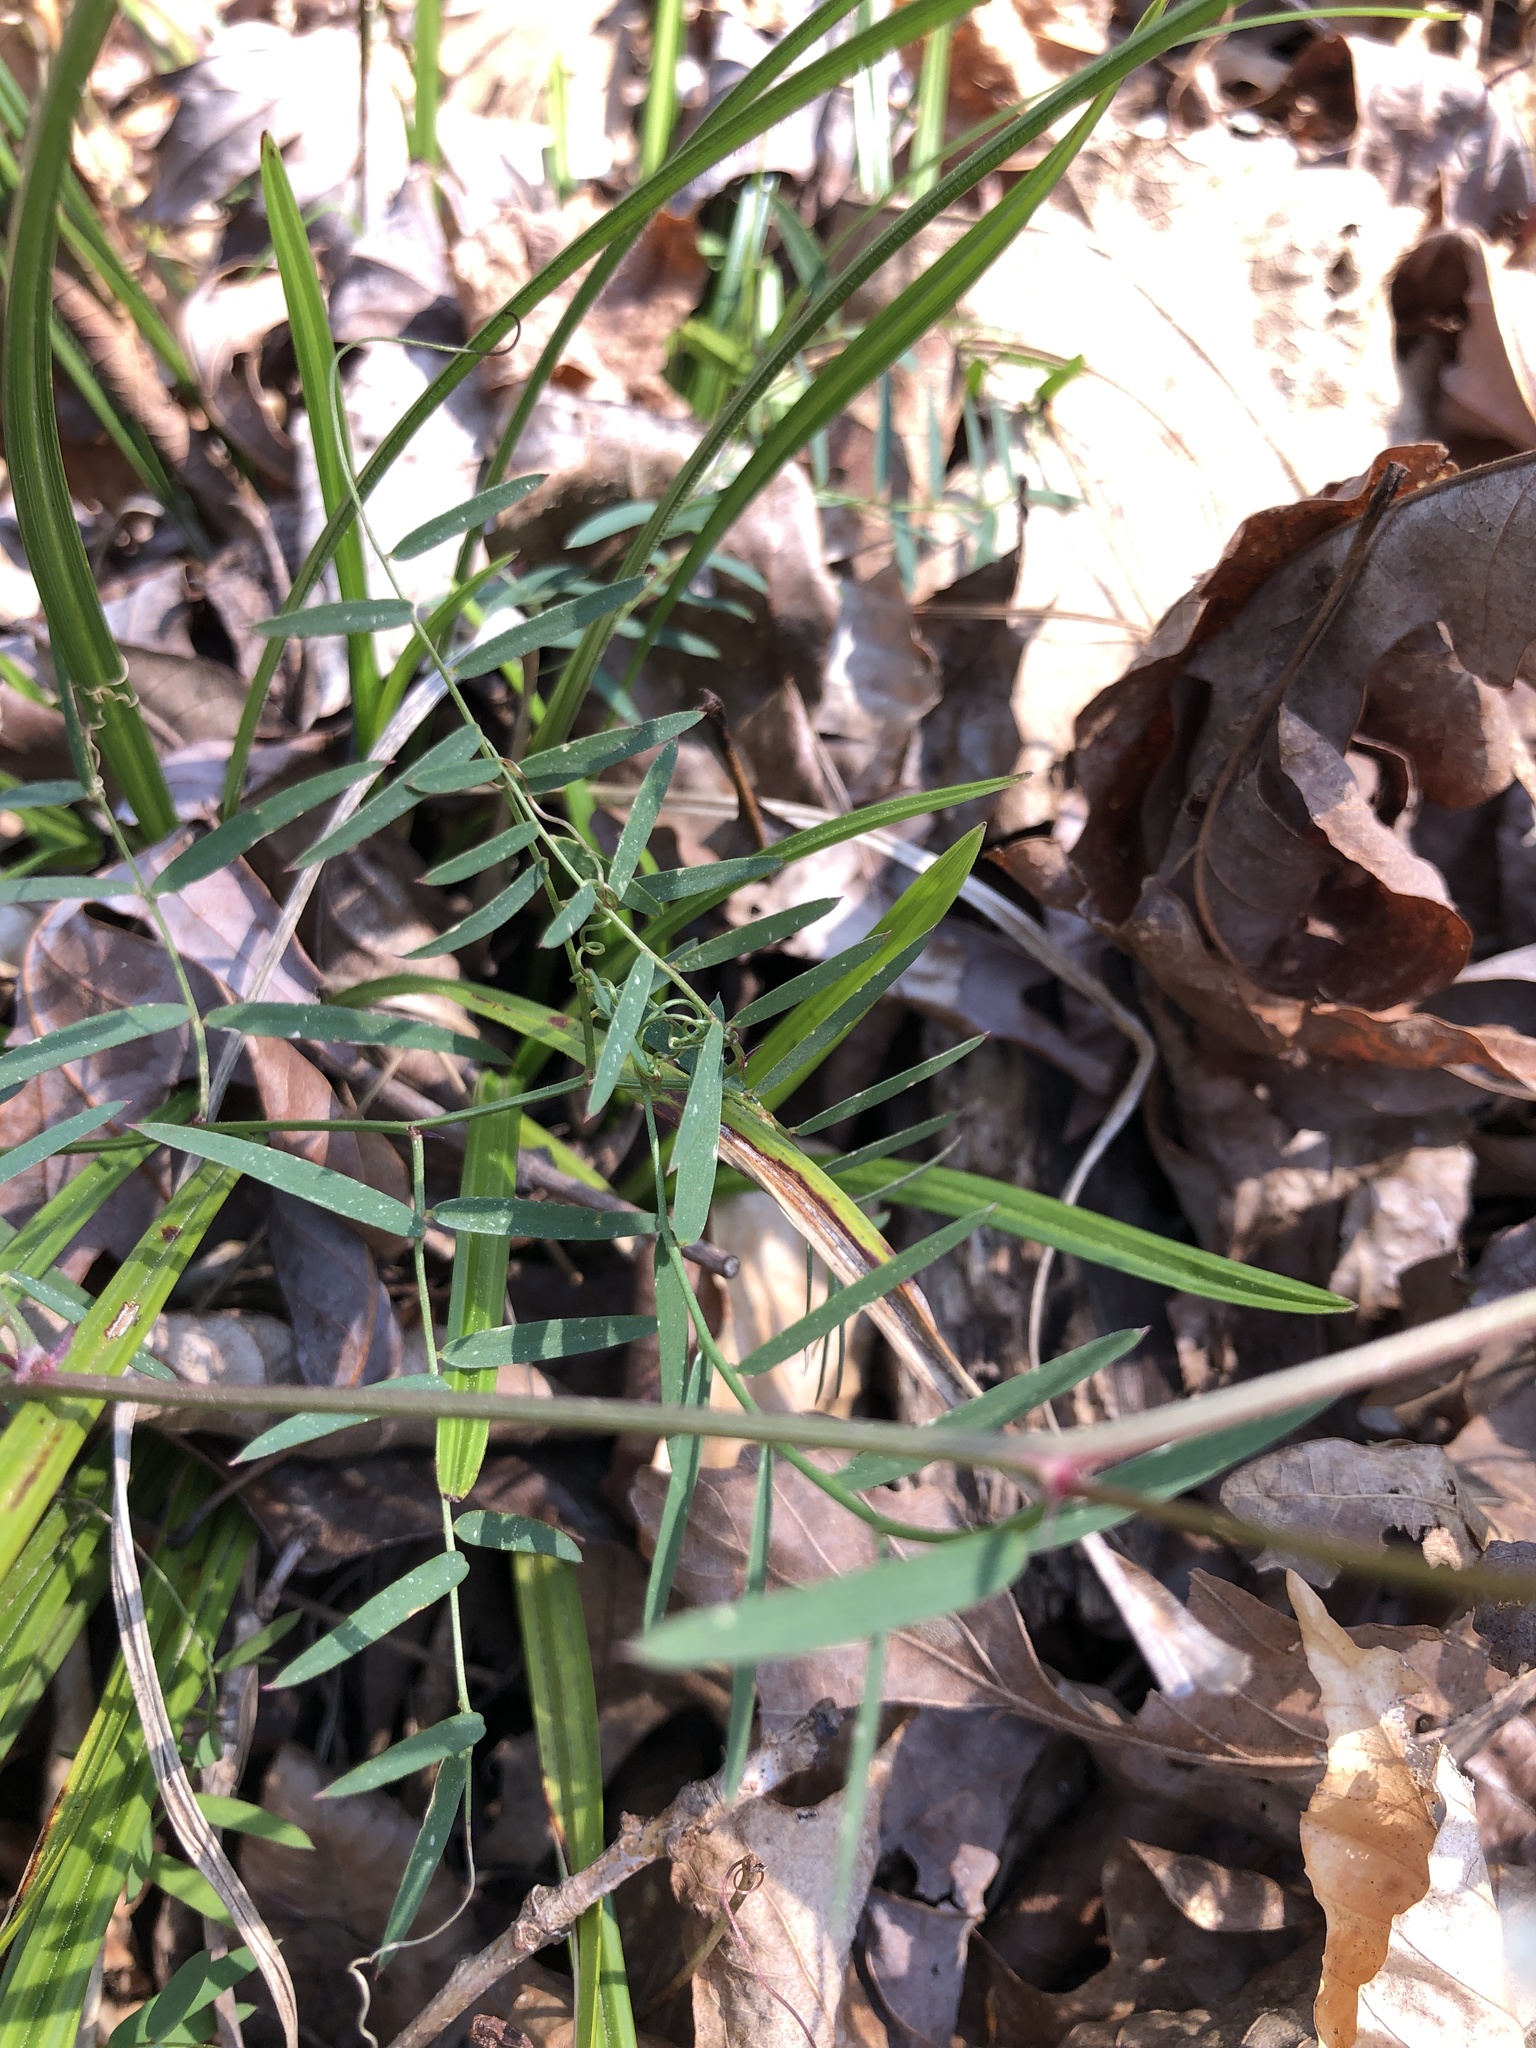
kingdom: Plantae
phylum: Tracheophyta
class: Magnoliopsida
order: Fabales
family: Fabaceae
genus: Vicia
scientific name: Vicia caroliniana
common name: Carolina vetch
